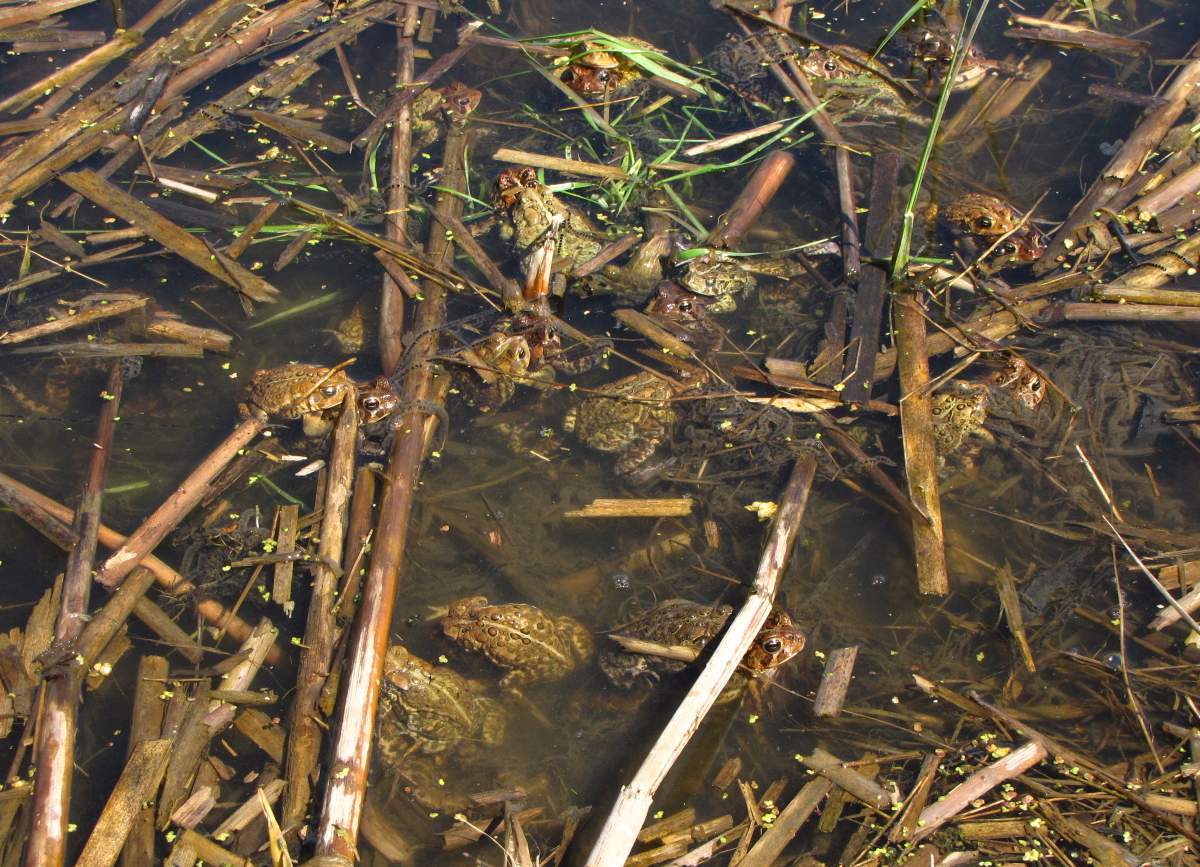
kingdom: Animalia
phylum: Chordata
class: Amphibia
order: Anura
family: Bufonidae
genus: Anaxyrus
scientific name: Anaxyrus americanus
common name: American toad
